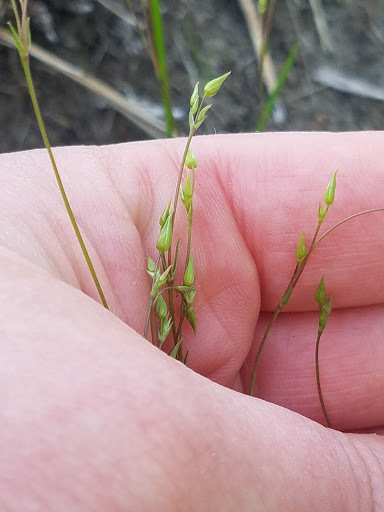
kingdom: Plantae
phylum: Tracheophyta
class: Magnoliopsida
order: Caryophyllales
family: Caryophyllaceae
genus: Sabulina
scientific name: Sabulina michauxii
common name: Michaux's stitchwort
